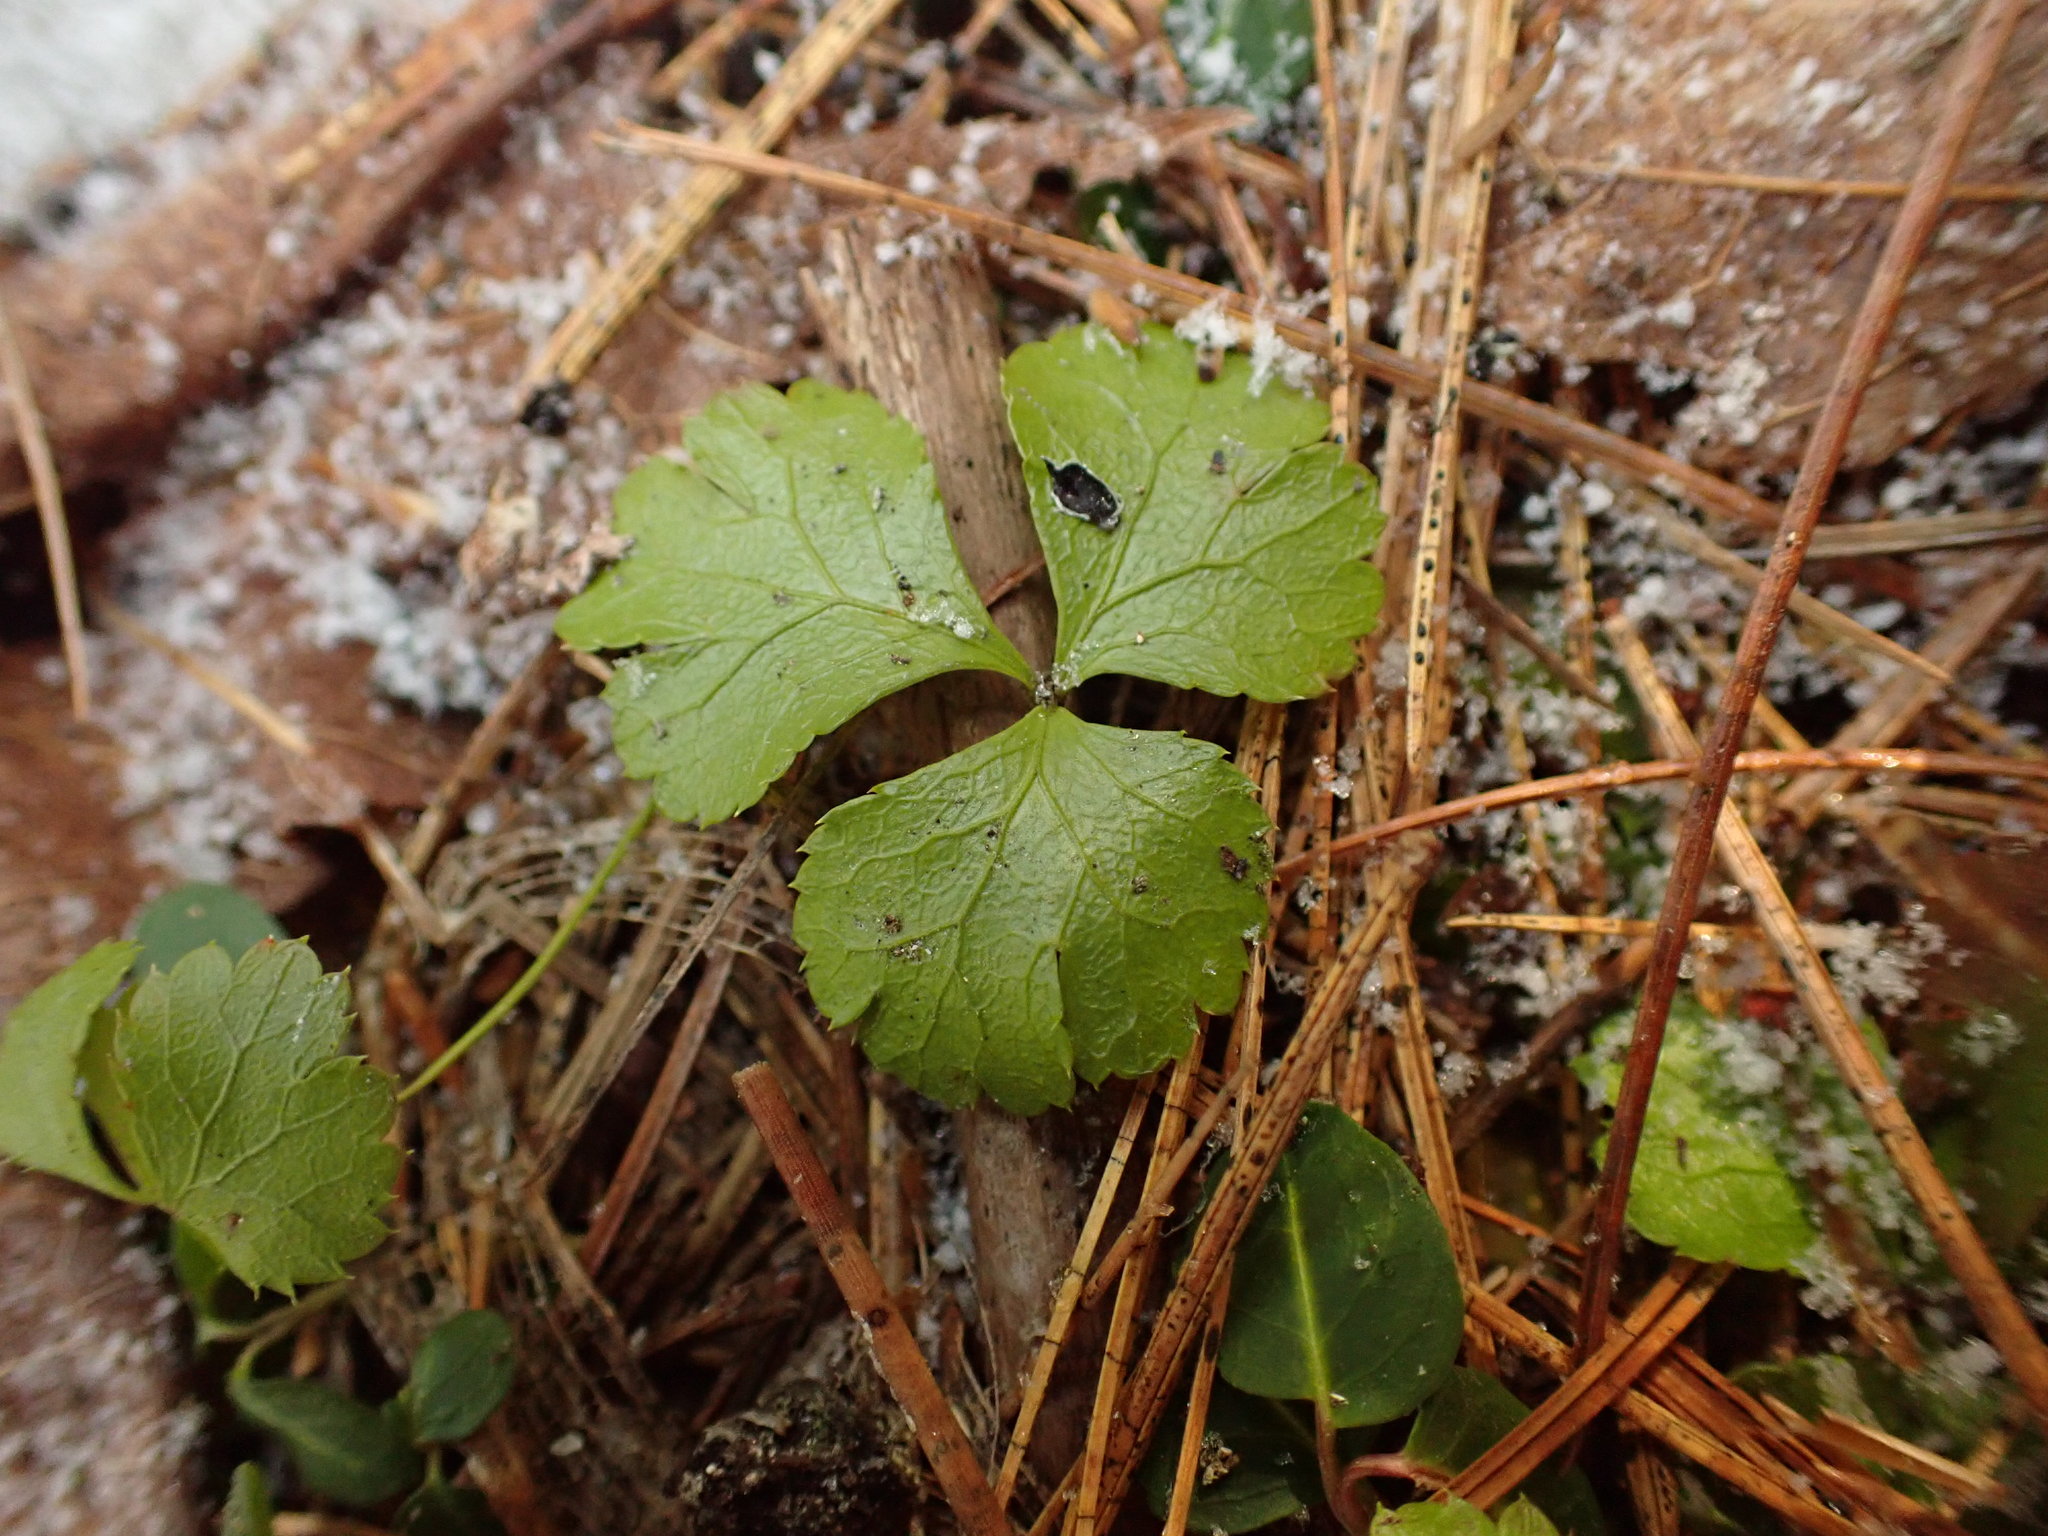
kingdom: Plantae
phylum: Tracheophyta
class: Magnoliopsida
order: Ranunculales
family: Ranunculaceae
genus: Coptis
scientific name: Coptis trifolia
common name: Canker-root
